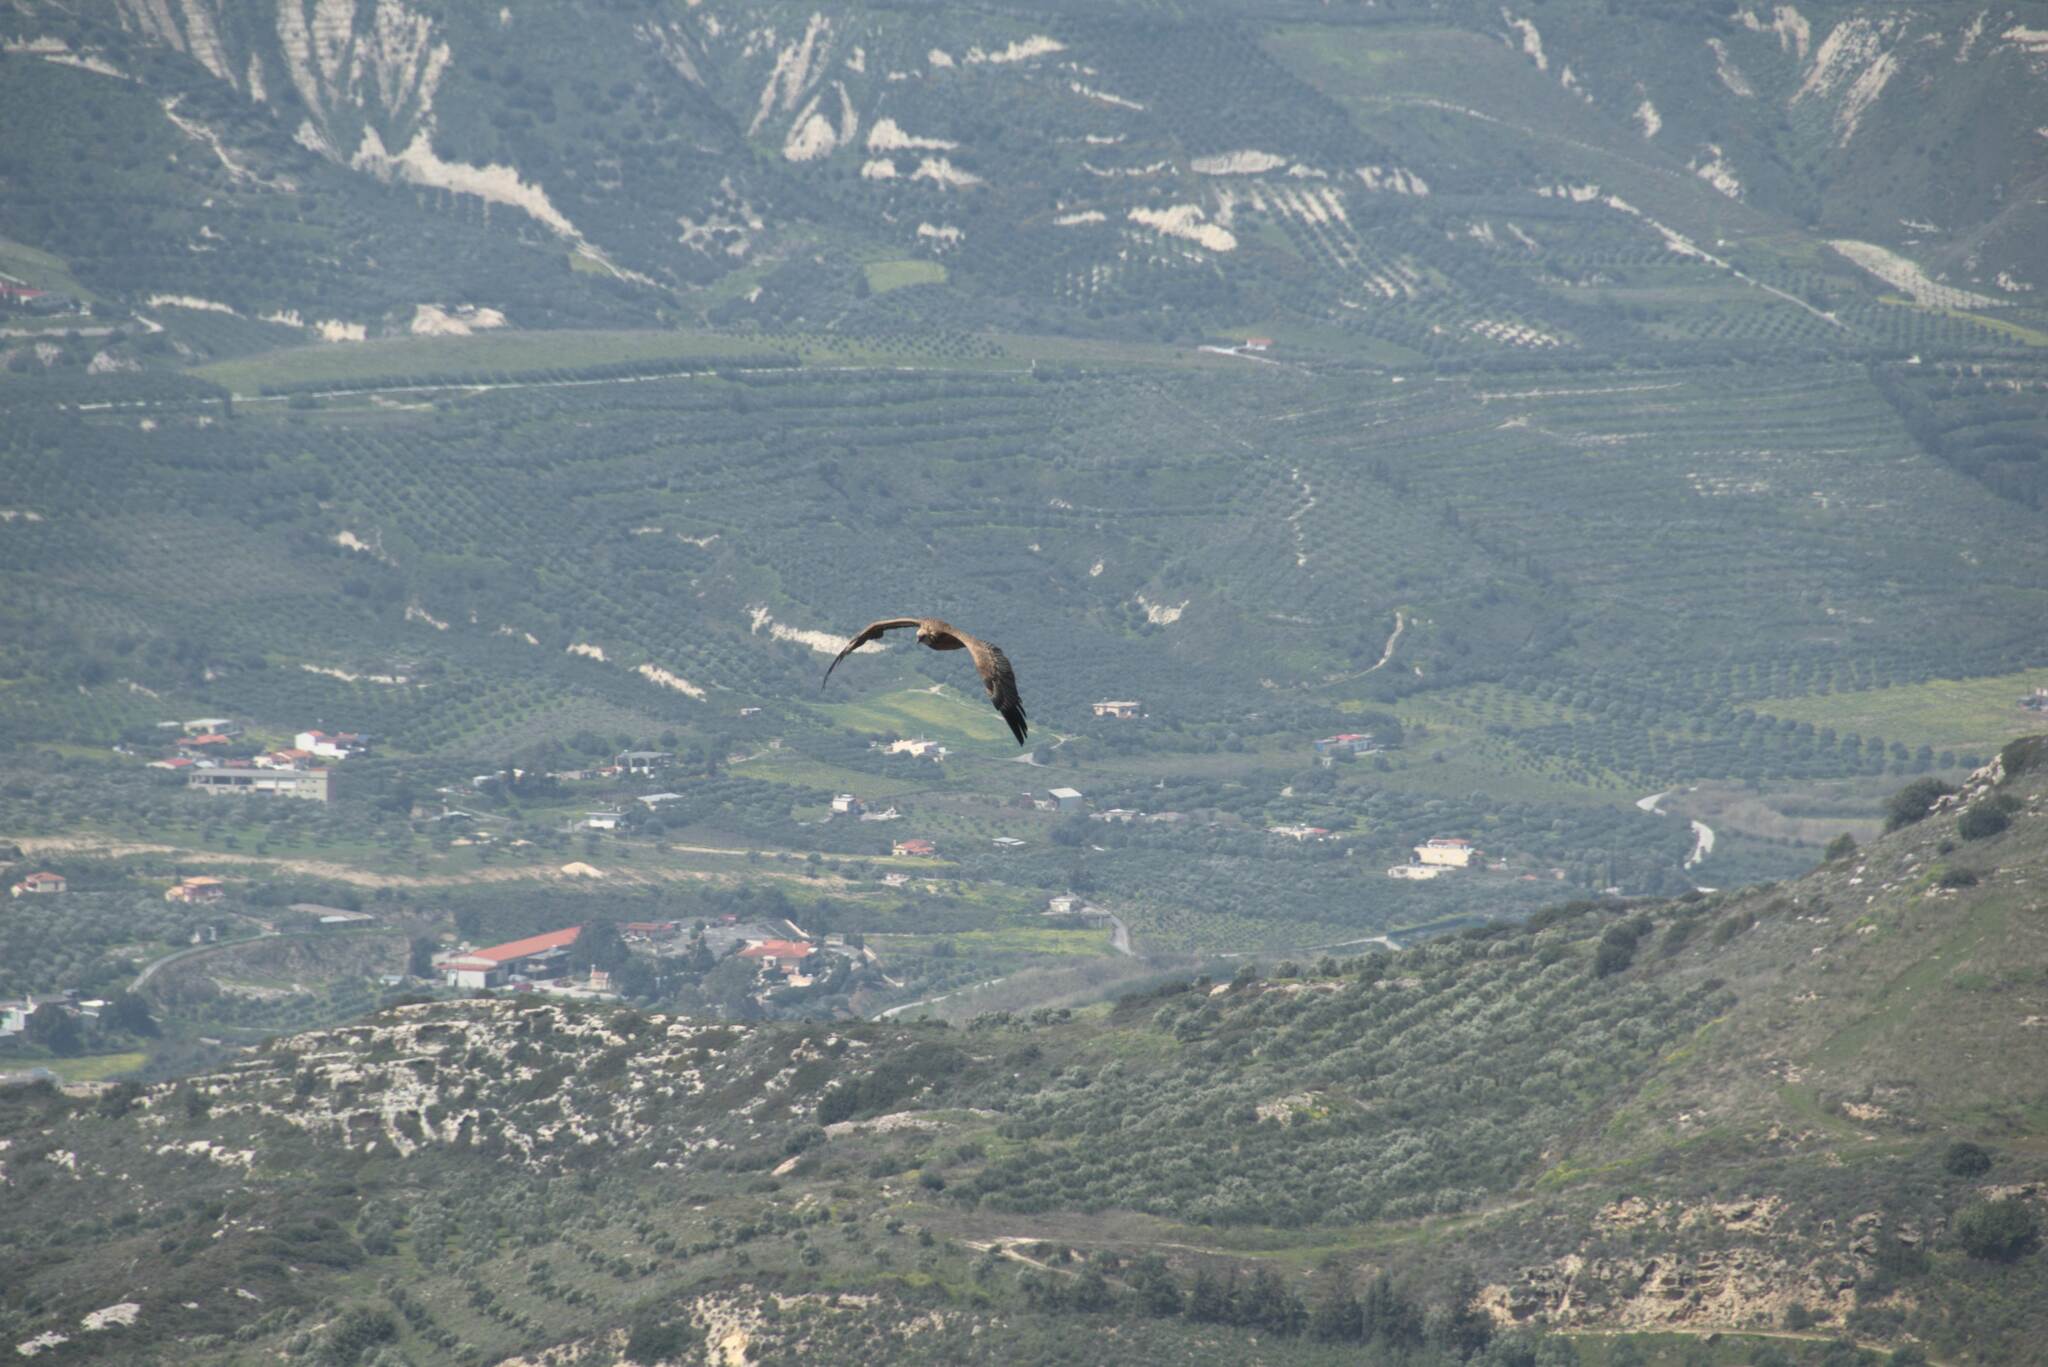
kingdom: Animalia
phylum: Chordata
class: Aves
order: Accipitriformes
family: Accipitridae
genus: Gyps
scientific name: Gyps fulvus
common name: Griffon vulture
